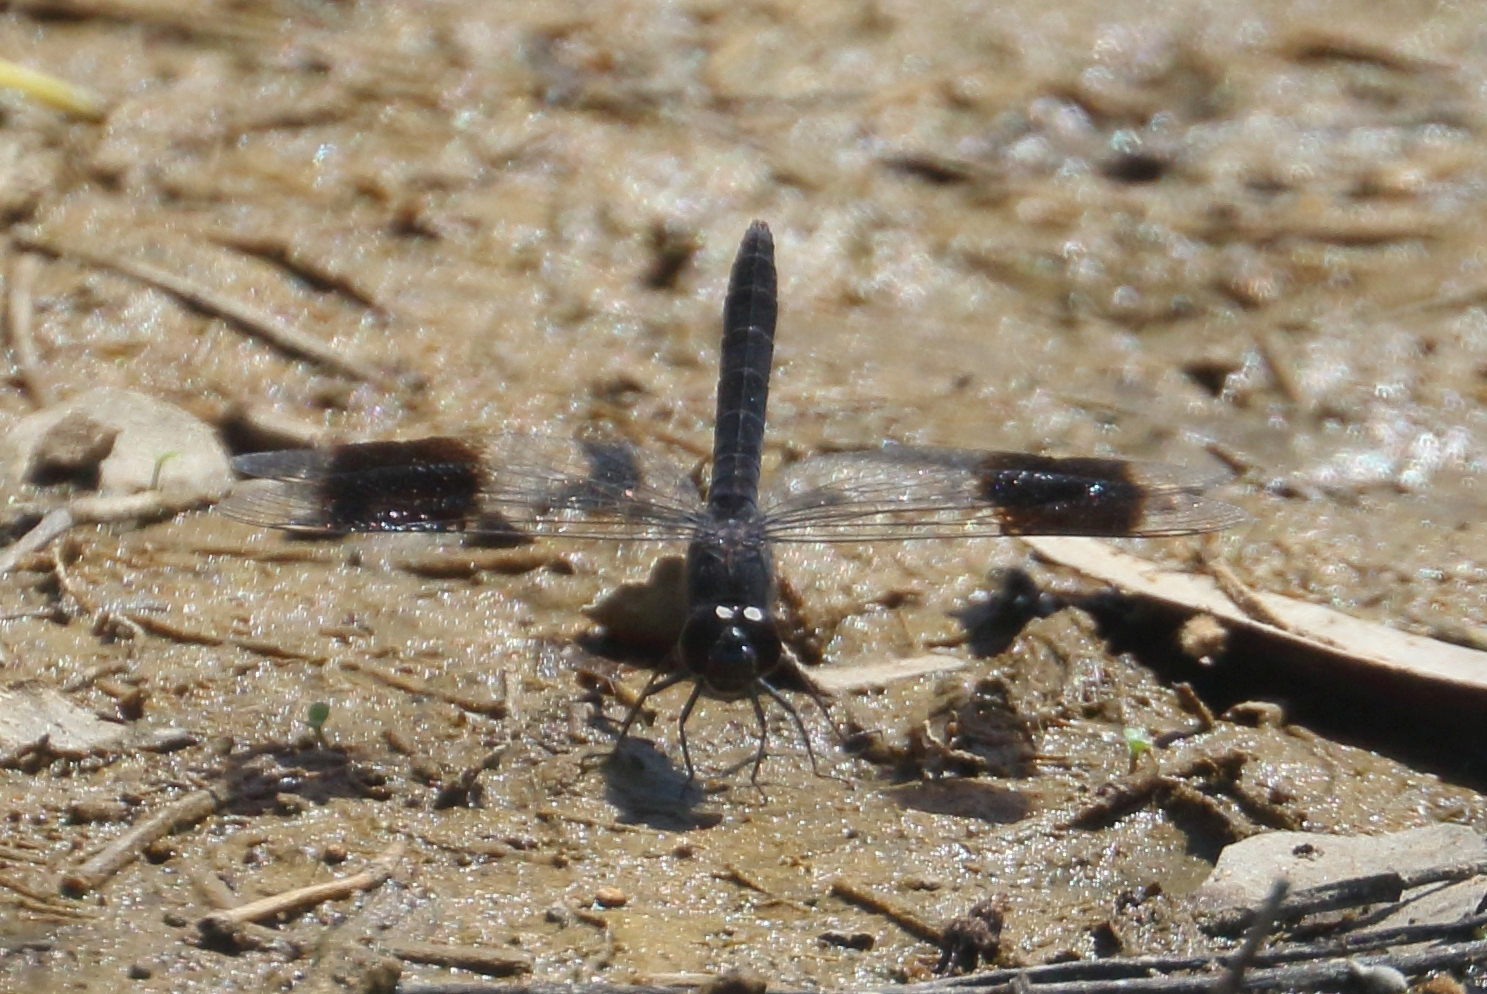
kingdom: Animalia
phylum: Arthropoda
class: Insecta
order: Odonata
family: Libellulidae
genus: Brachythemis
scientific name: Brachythemis leucosticta
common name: Banded groundling
